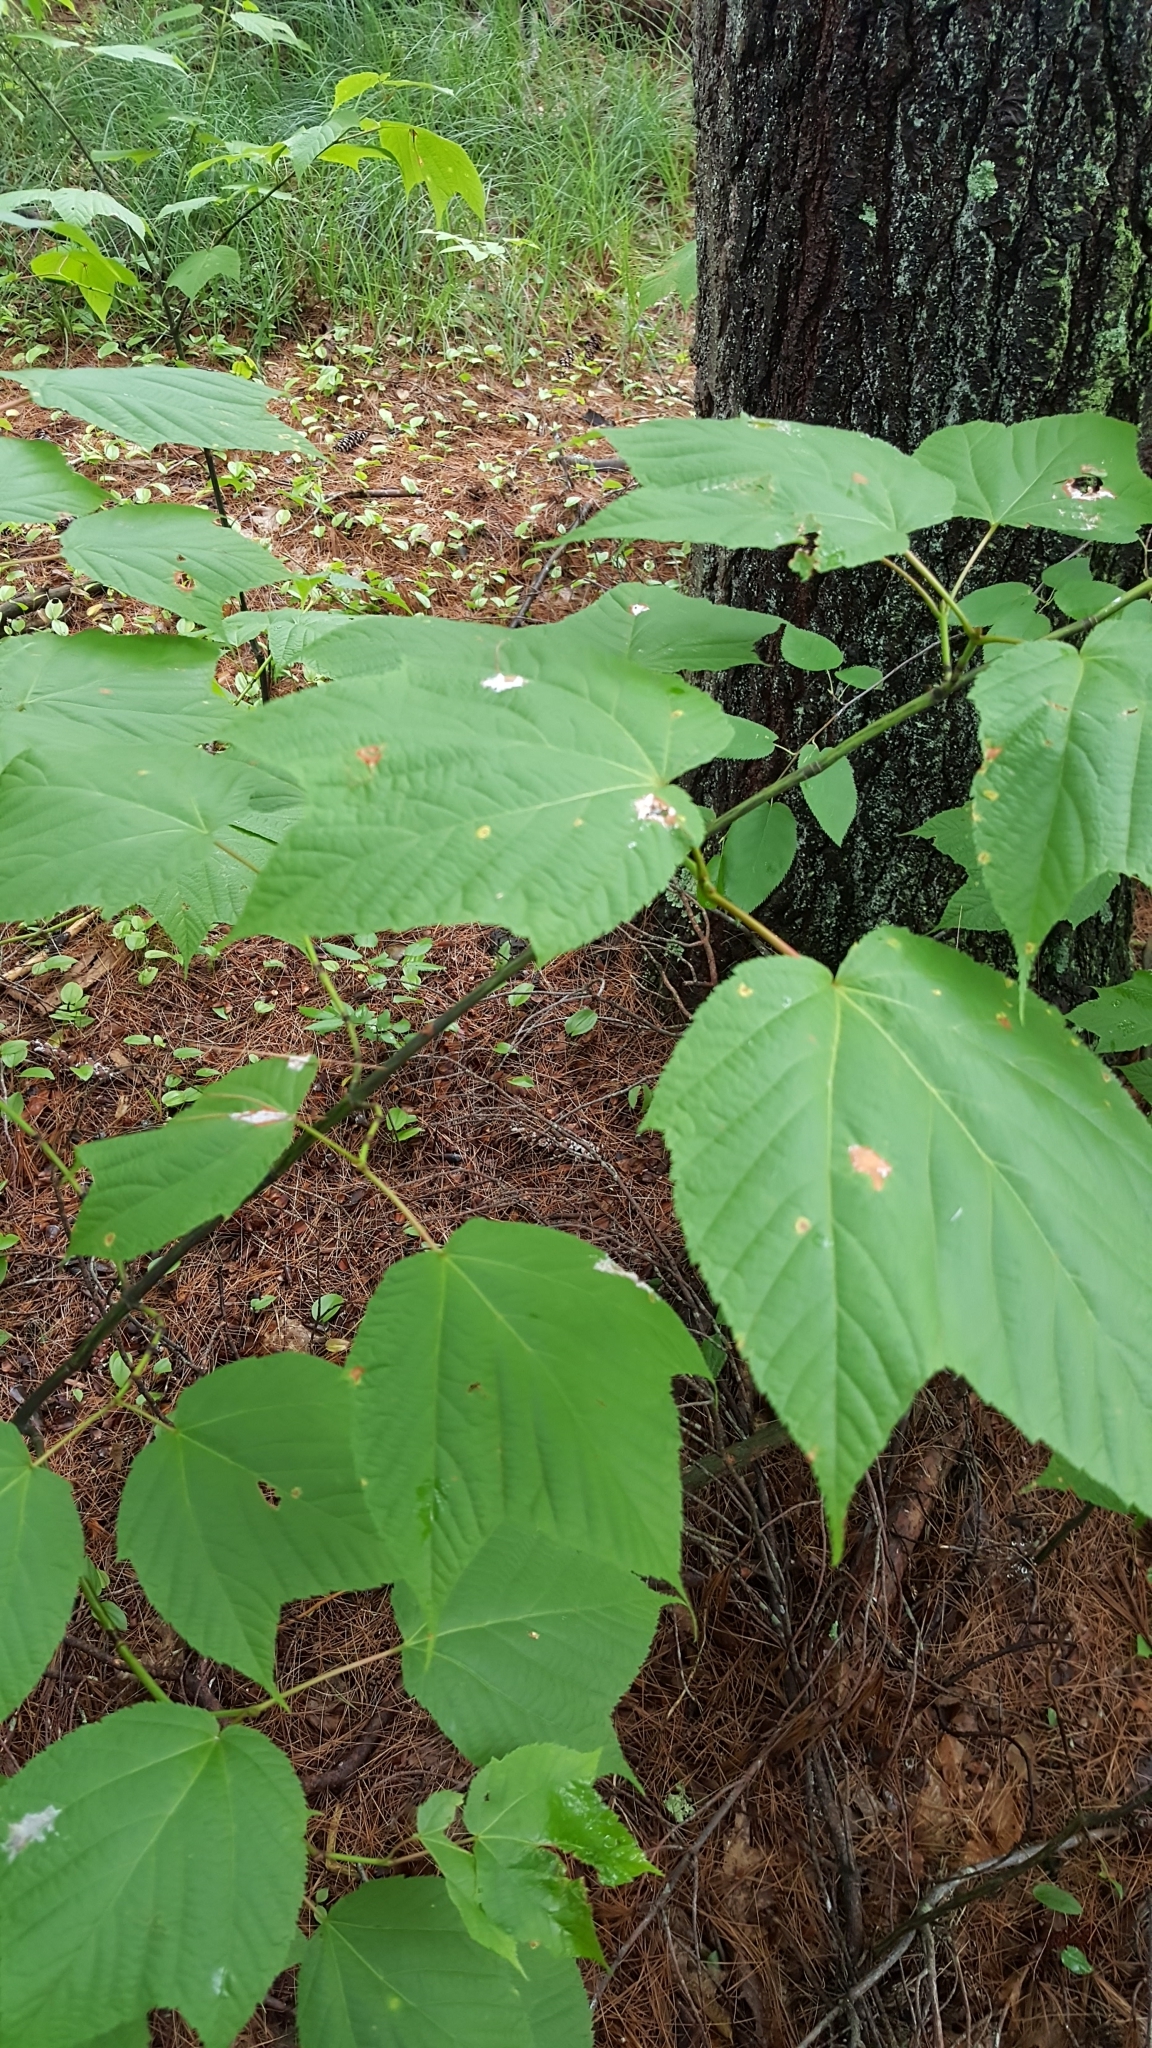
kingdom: Plantae
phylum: Tracheophyta
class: Magnoliopsida
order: Sapindales
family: Sapindaceae
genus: Acer
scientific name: Acer pensylvanicum
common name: Moosewood
